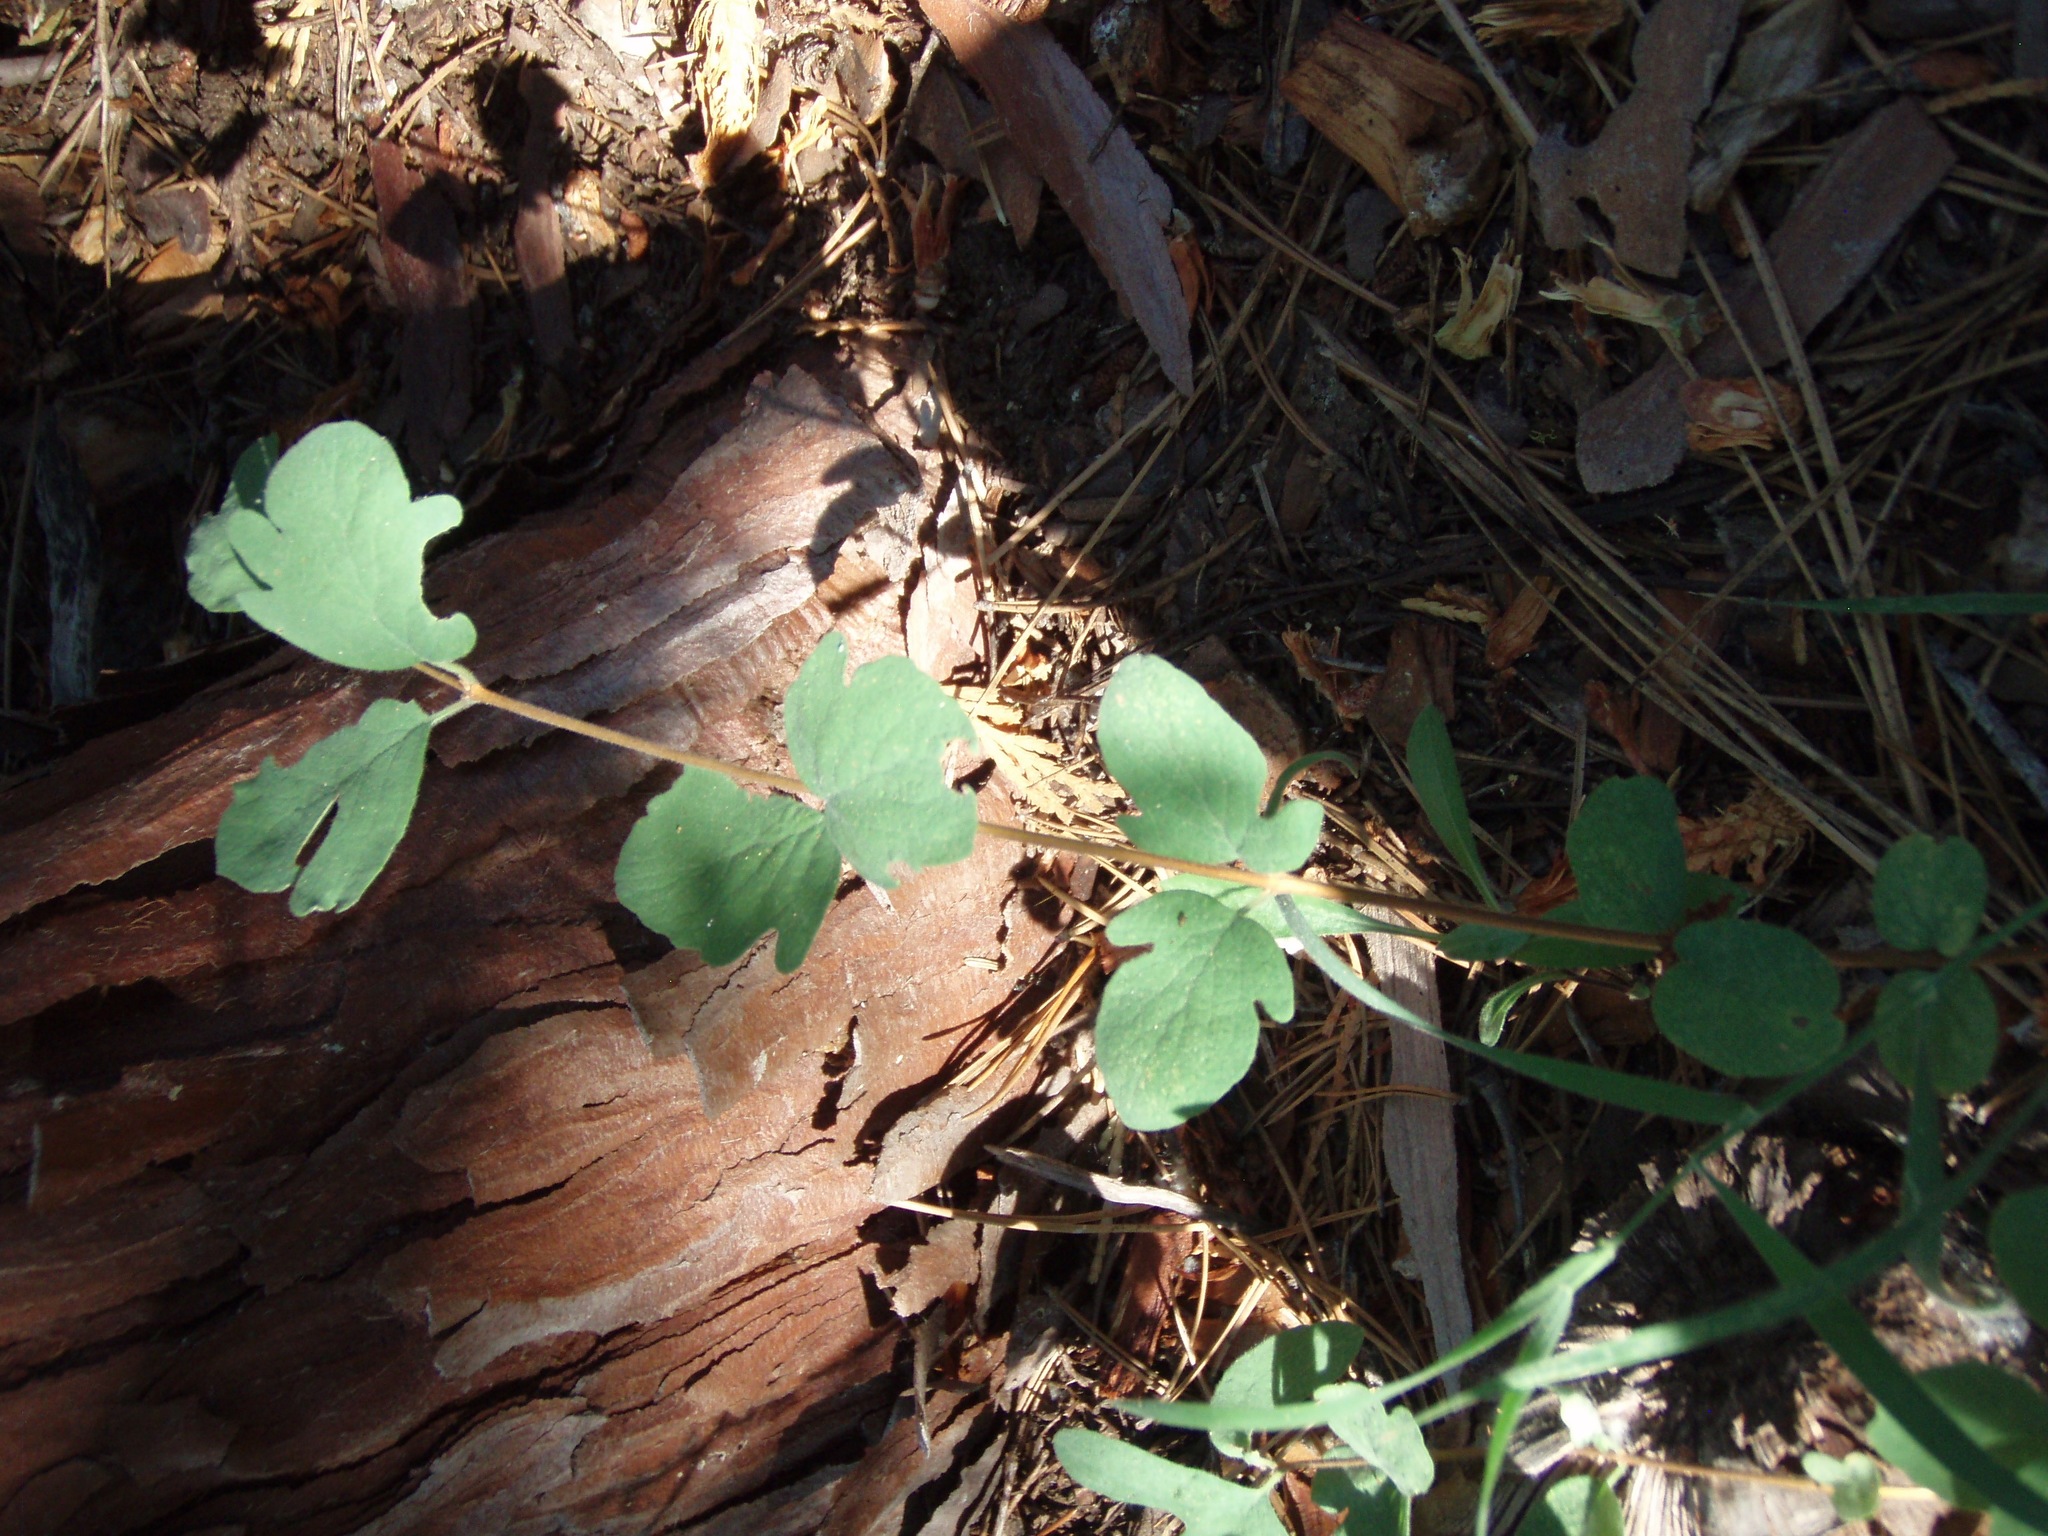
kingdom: Plantae
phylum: Tracheophyta
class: Magnoliopsida
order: Dipsacales
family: Caprifoliaceae
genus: Symphoricarpos
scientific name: Symphoricarpos mollis
